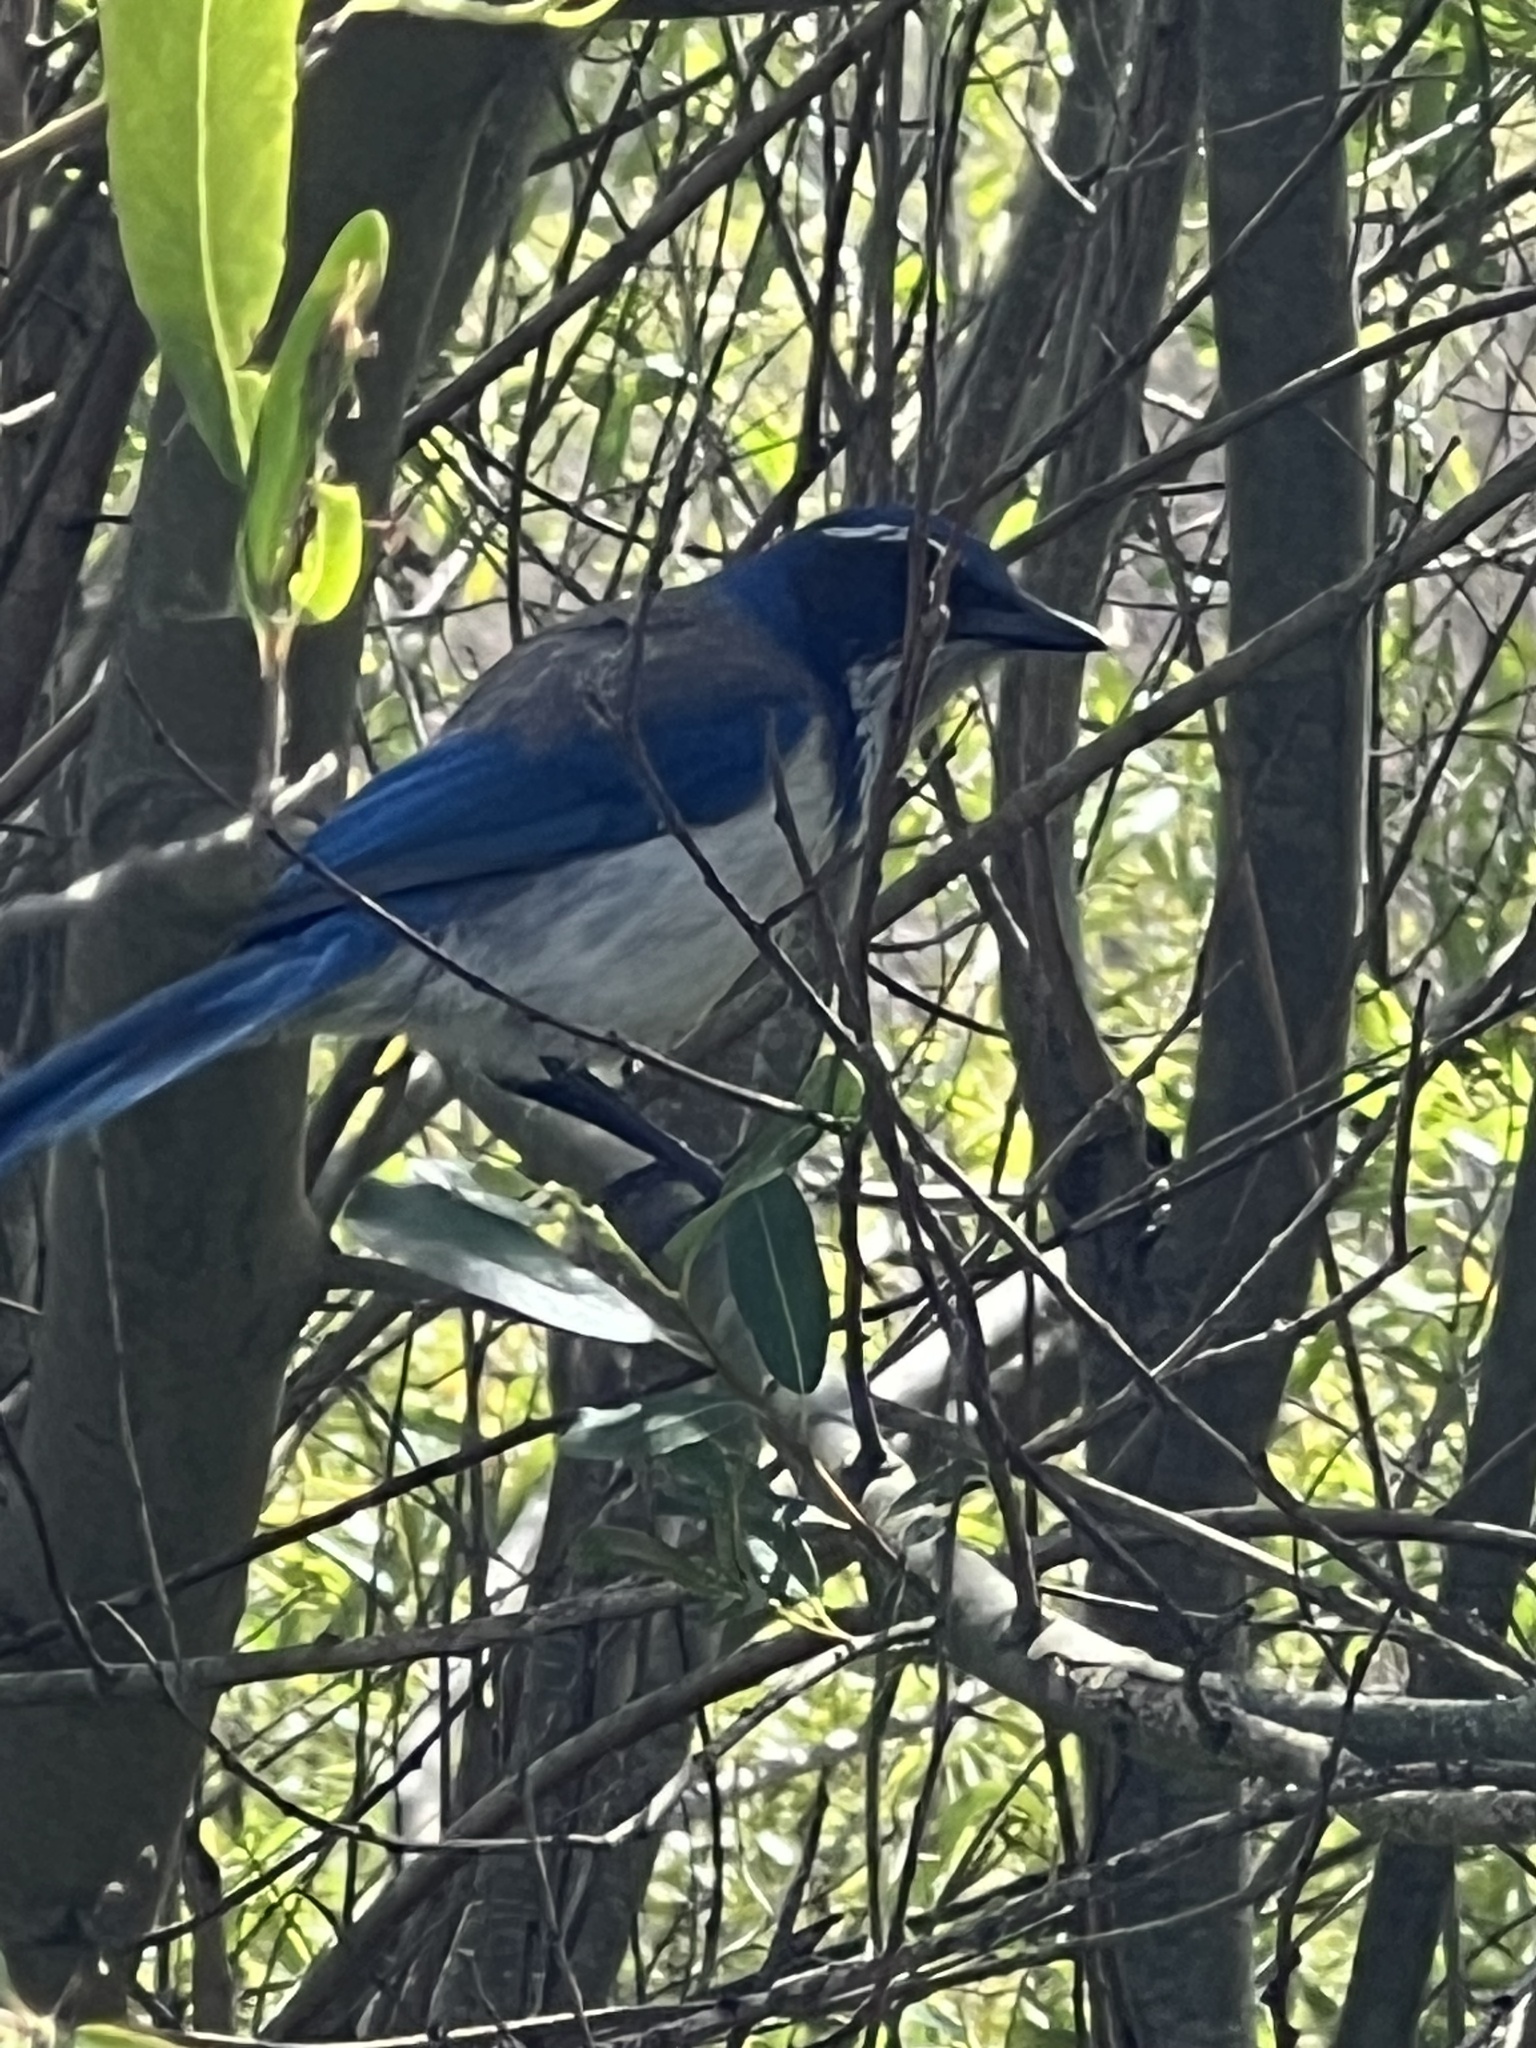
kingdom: Animalia
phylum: Chordata
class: Aves
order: Passeriformes
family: Corvidae
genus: Aphelocoma
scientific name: Aphelocoma californica
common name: California scrub-jay
